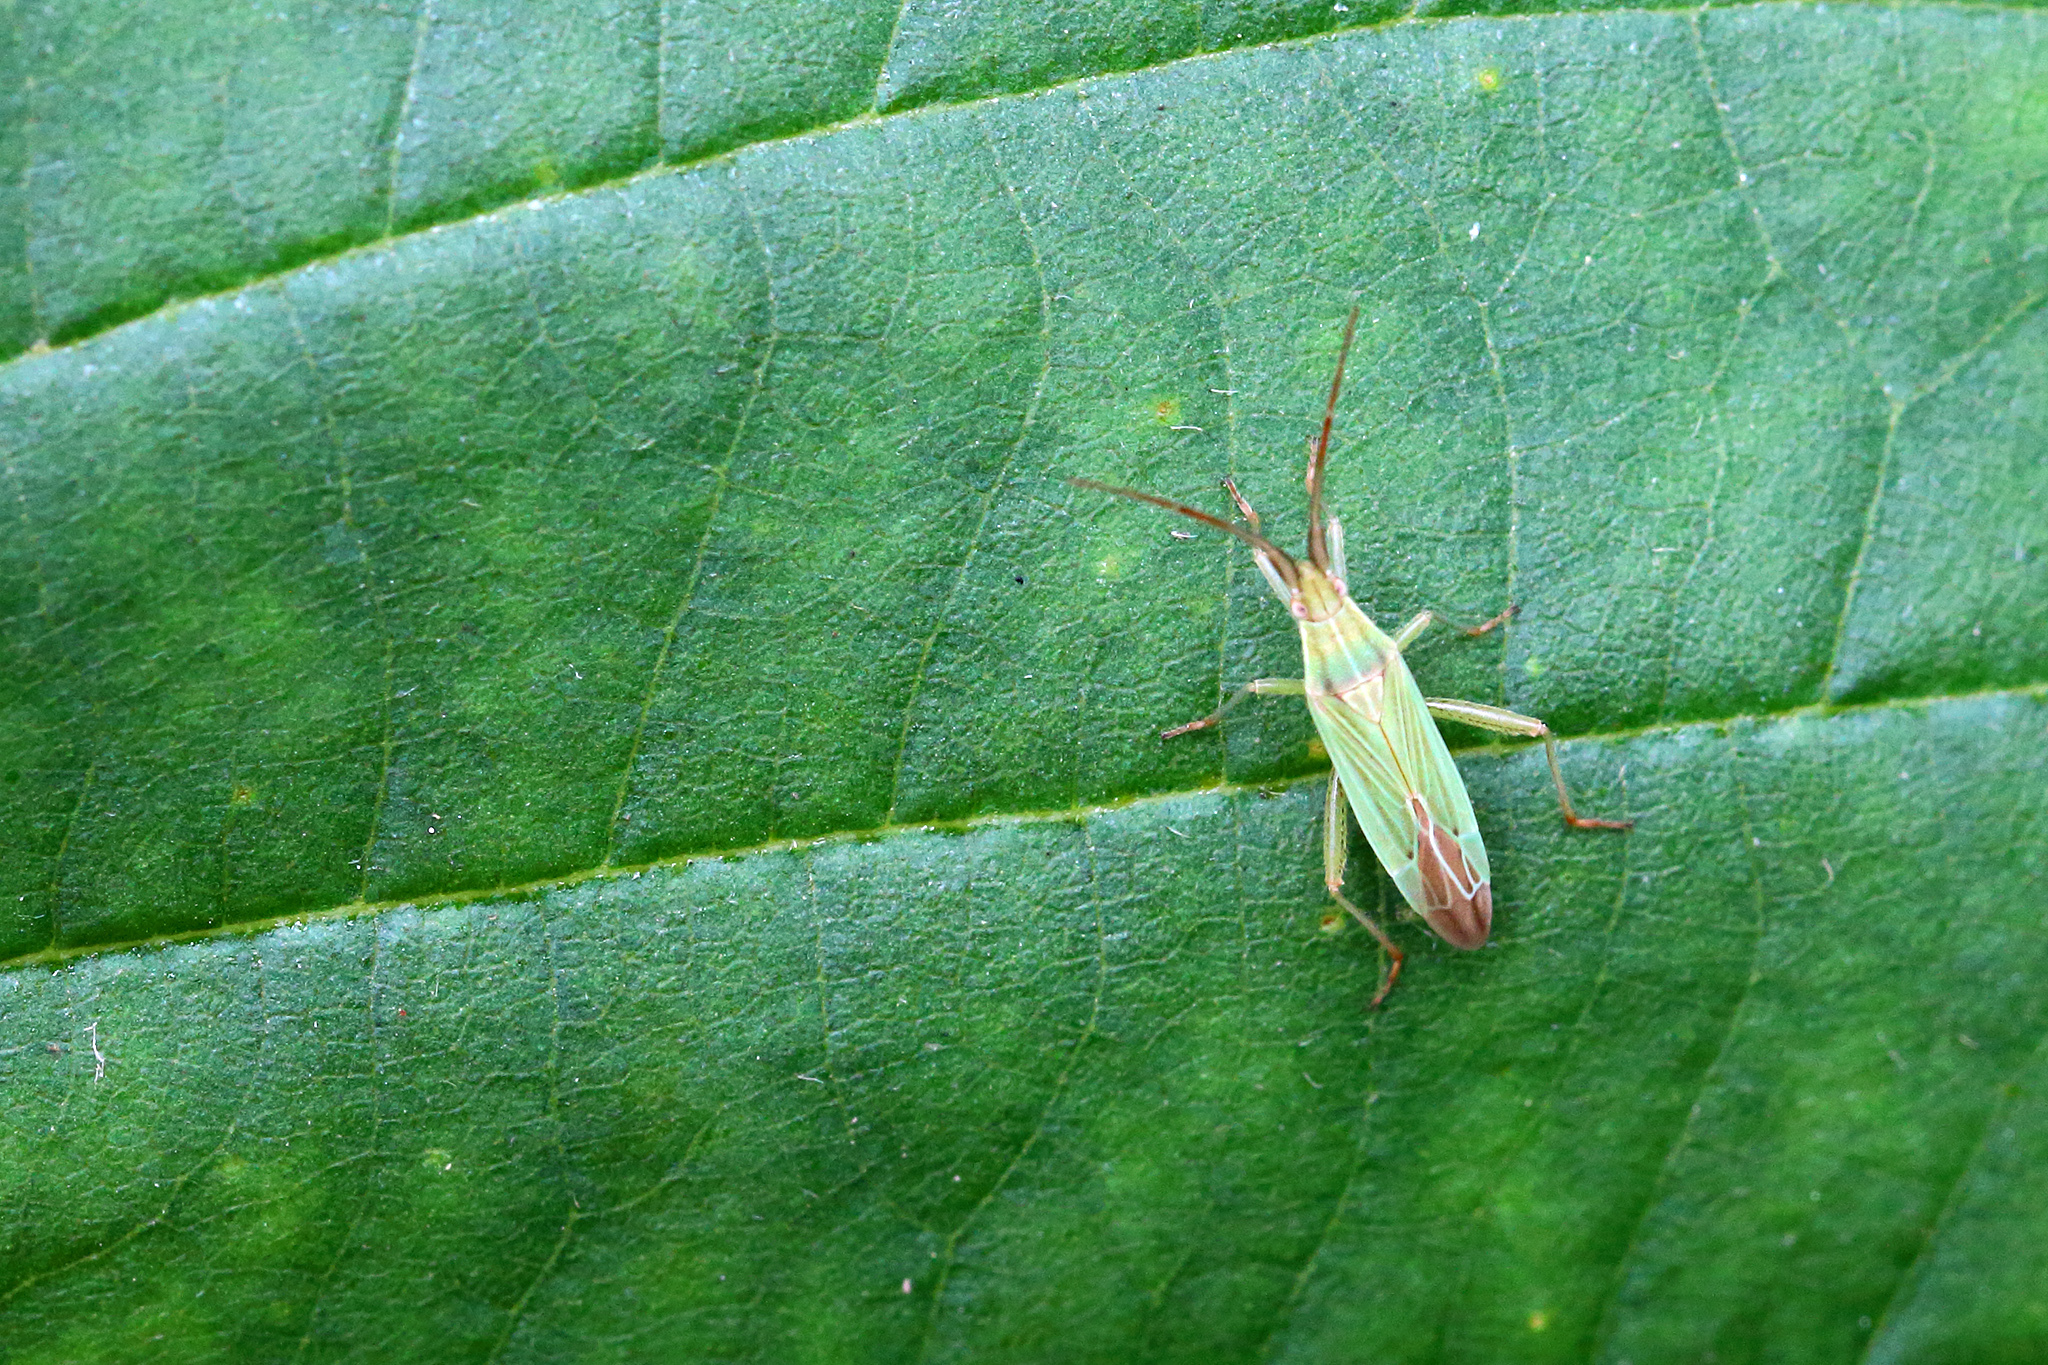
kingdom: Animalia
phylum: Arthropoda
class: Insecta
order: Hemiptera
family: Miridae
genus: Stenodema
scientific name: Stenodema calcarata
